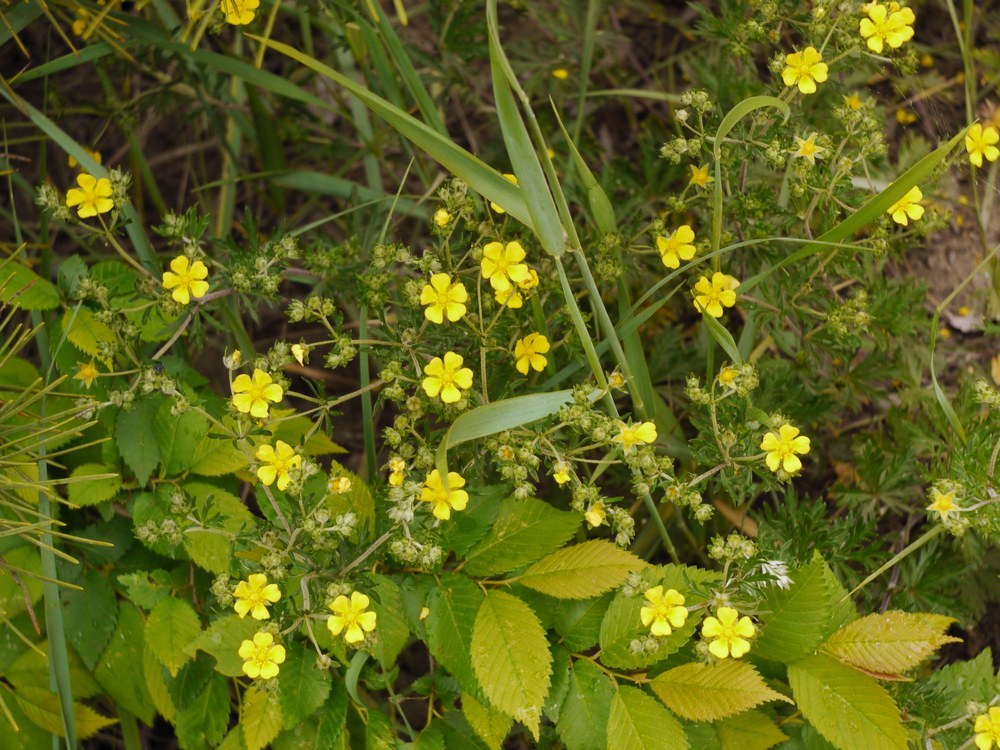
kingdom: Plantae
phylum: Tracheophyta
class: Magnoliopsida
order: Rosales
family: Rosaceae
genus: Potentilla
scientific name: Potentilla argentea
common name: Hoary cinquefoil
